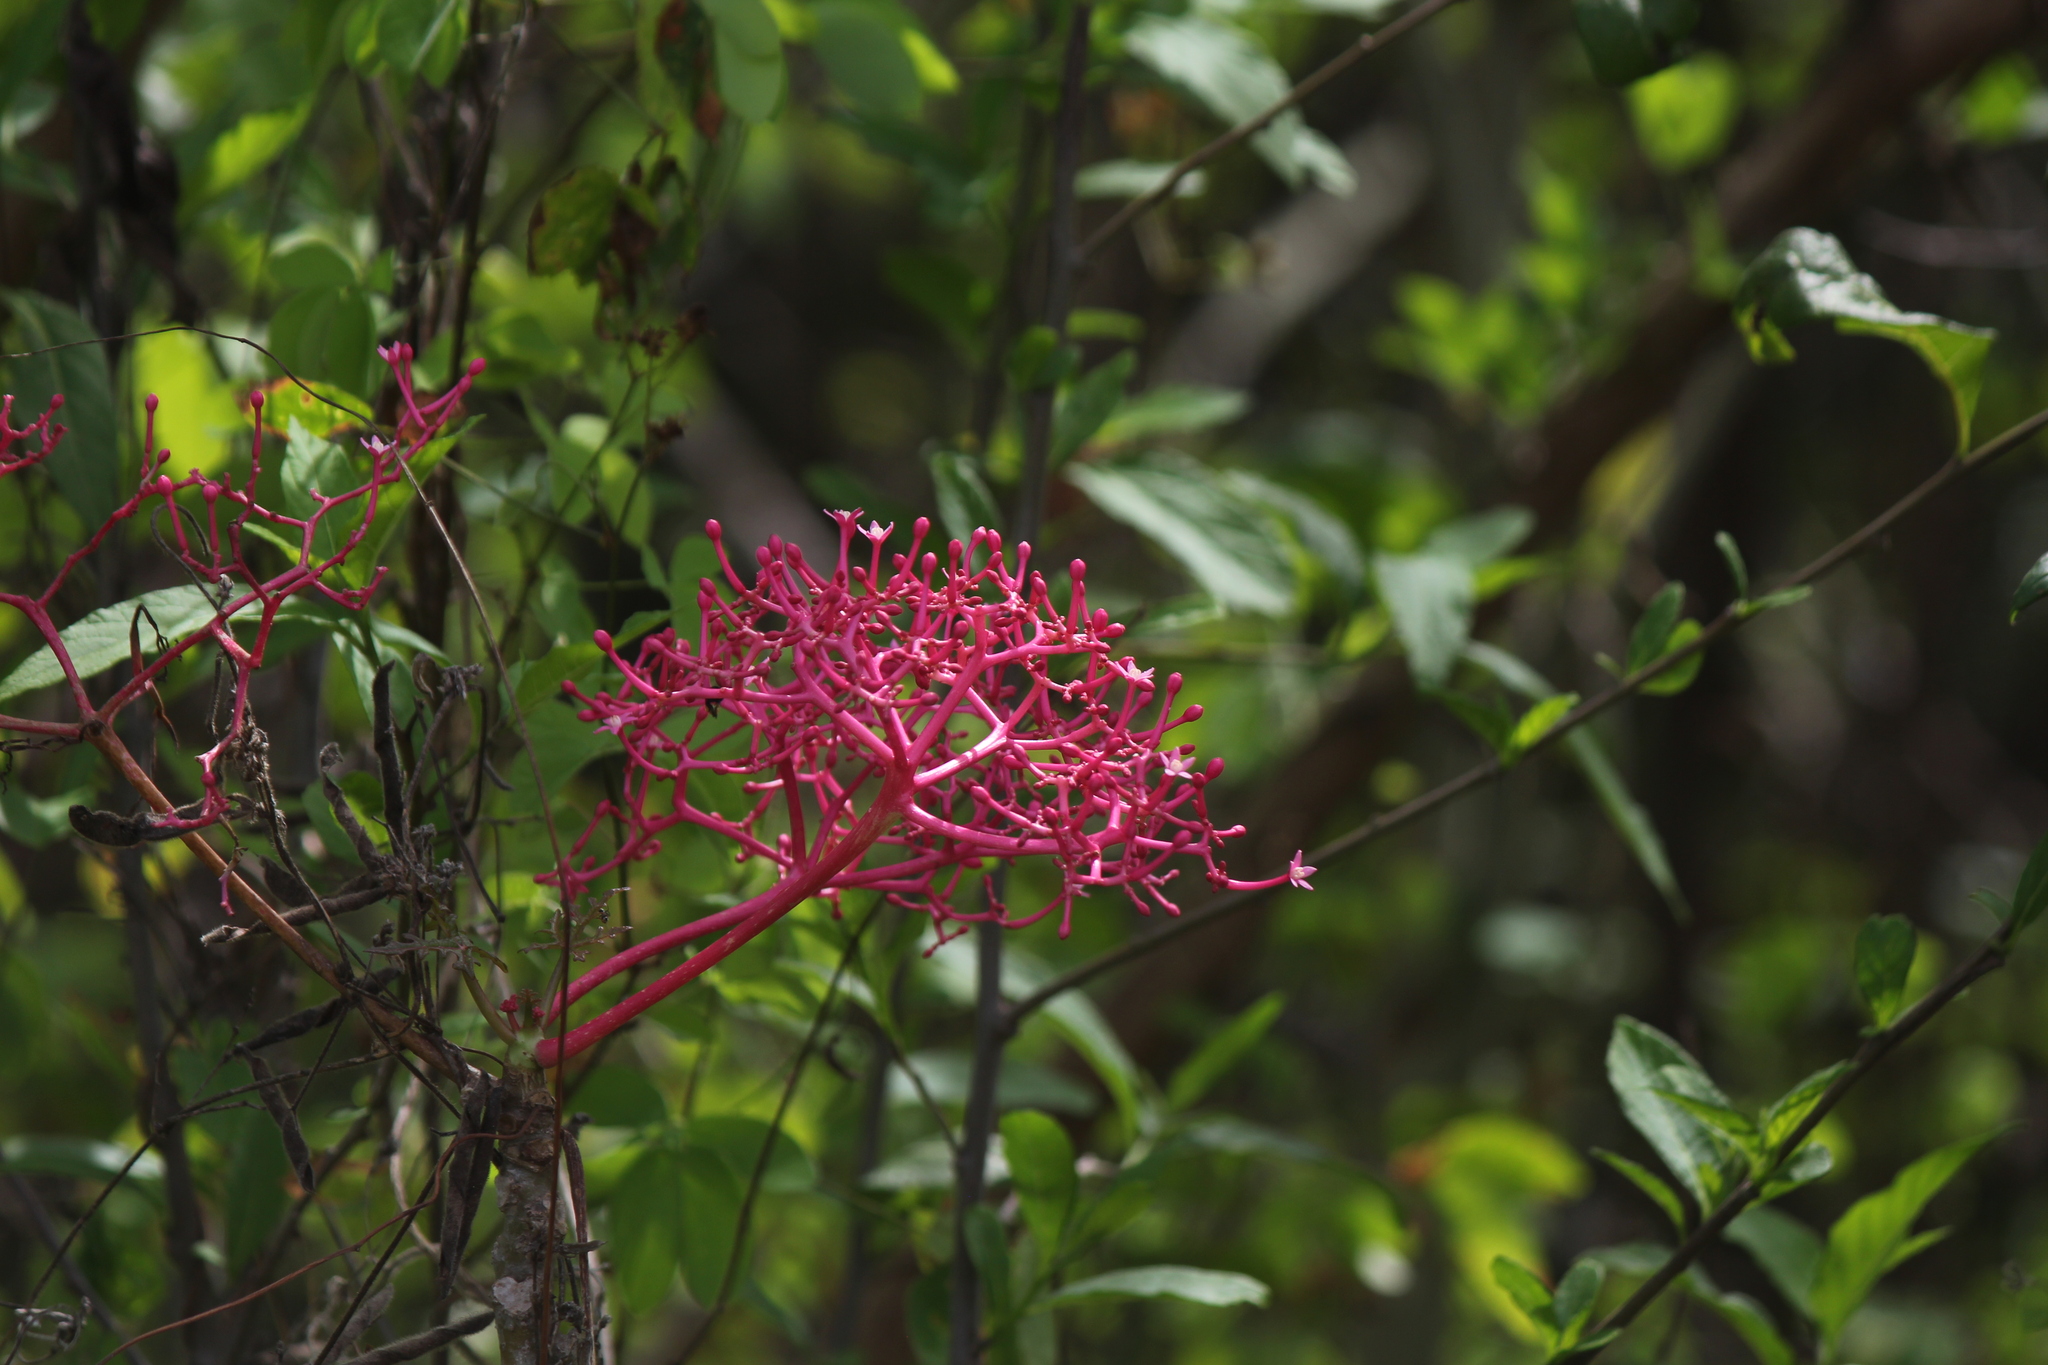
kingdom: Plantae
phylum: Tracheophyta
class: Magnoliopsida
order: Brassicales
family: Caricaceae
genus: Vasconcellea
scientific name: Vasconcellea parviflora
